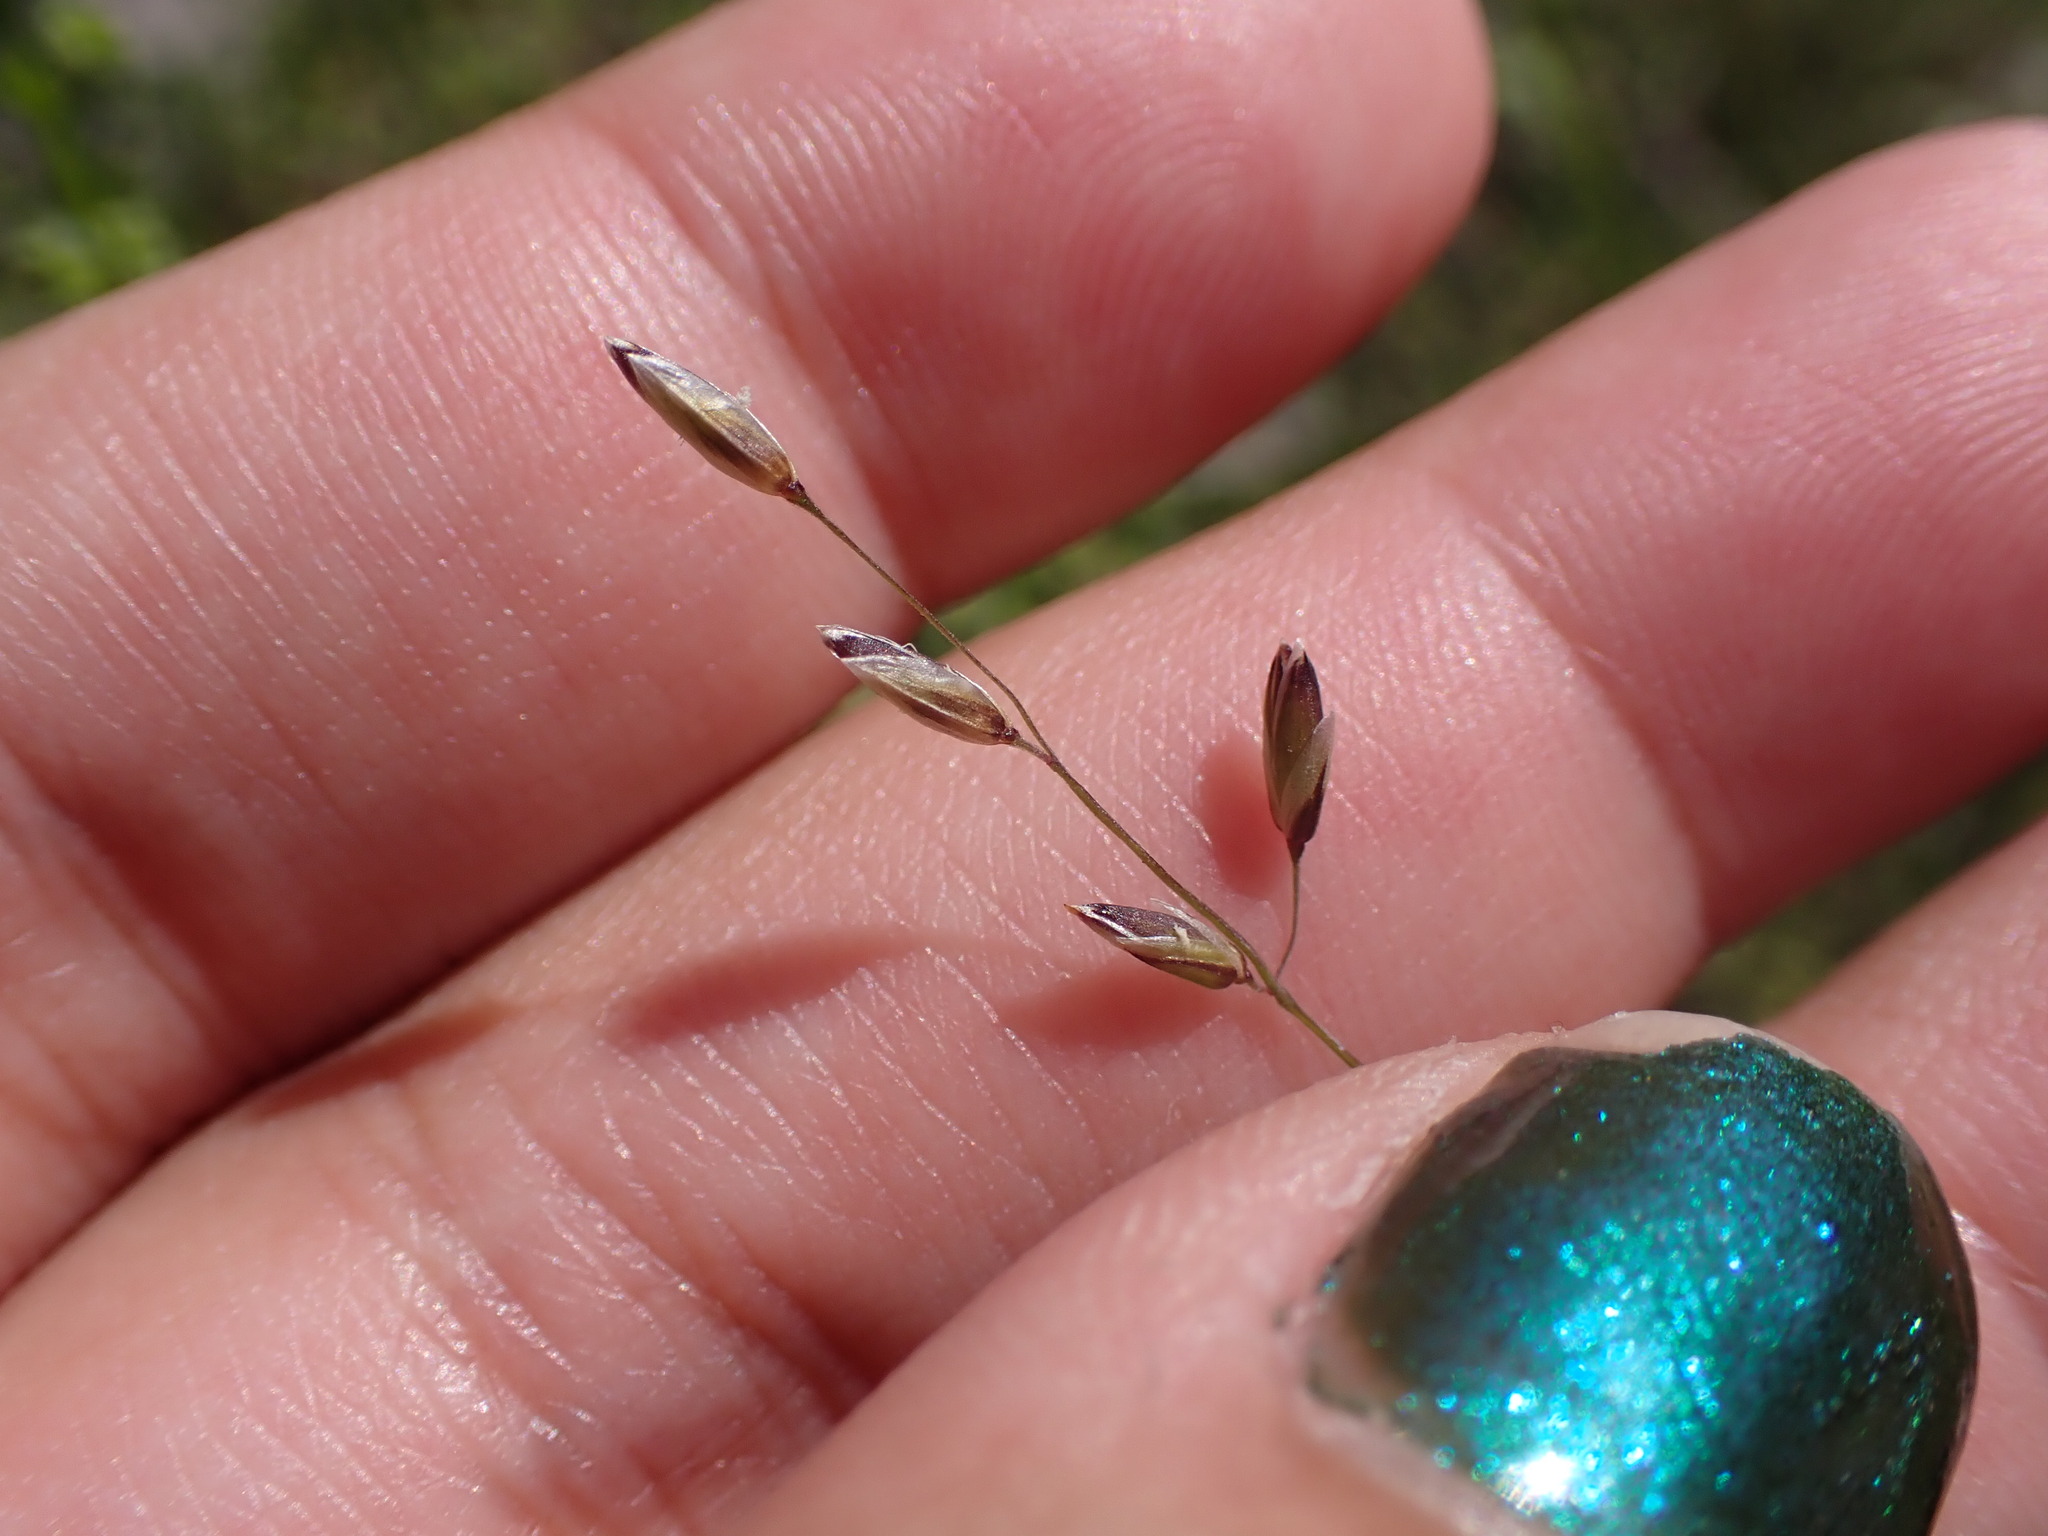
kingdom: Plantae
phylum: Tracheophyta
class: Liliopsida
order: Poales
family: Poaceae
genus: Melica
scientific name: Melica imperfecta
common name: California melic
